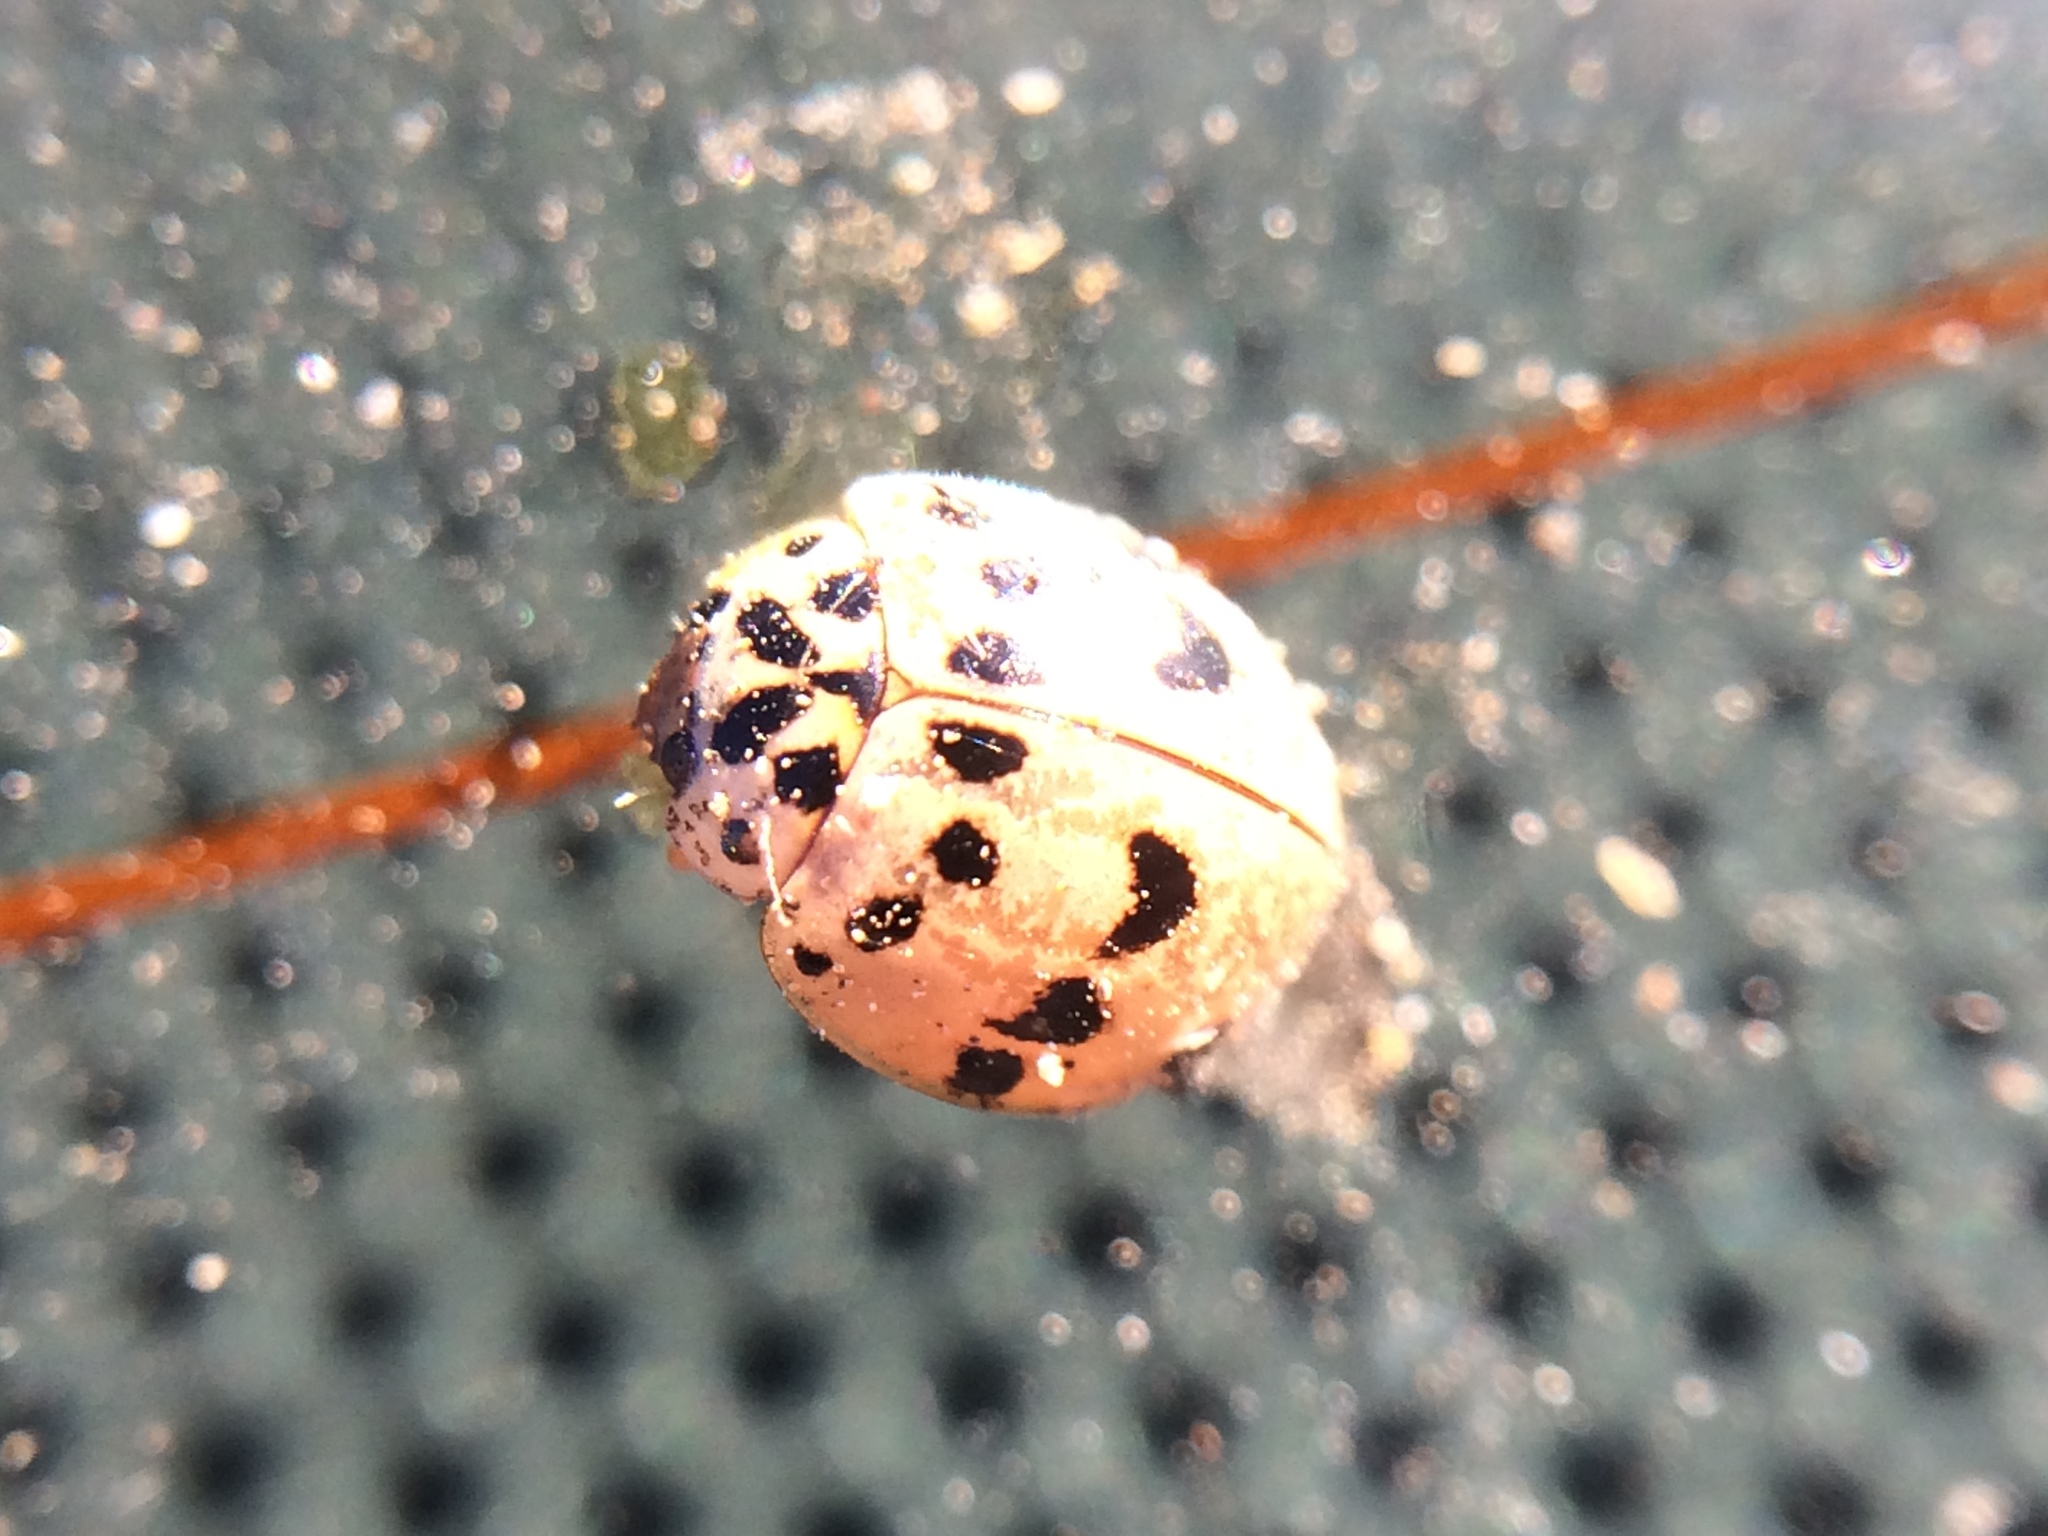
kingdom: Animalia
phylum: Arthropoda
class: Insecta
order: Coleoptera
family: Coccinellidae
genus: Olla
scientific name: Olla v-nigrum
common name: Ashy gray lady beetle
